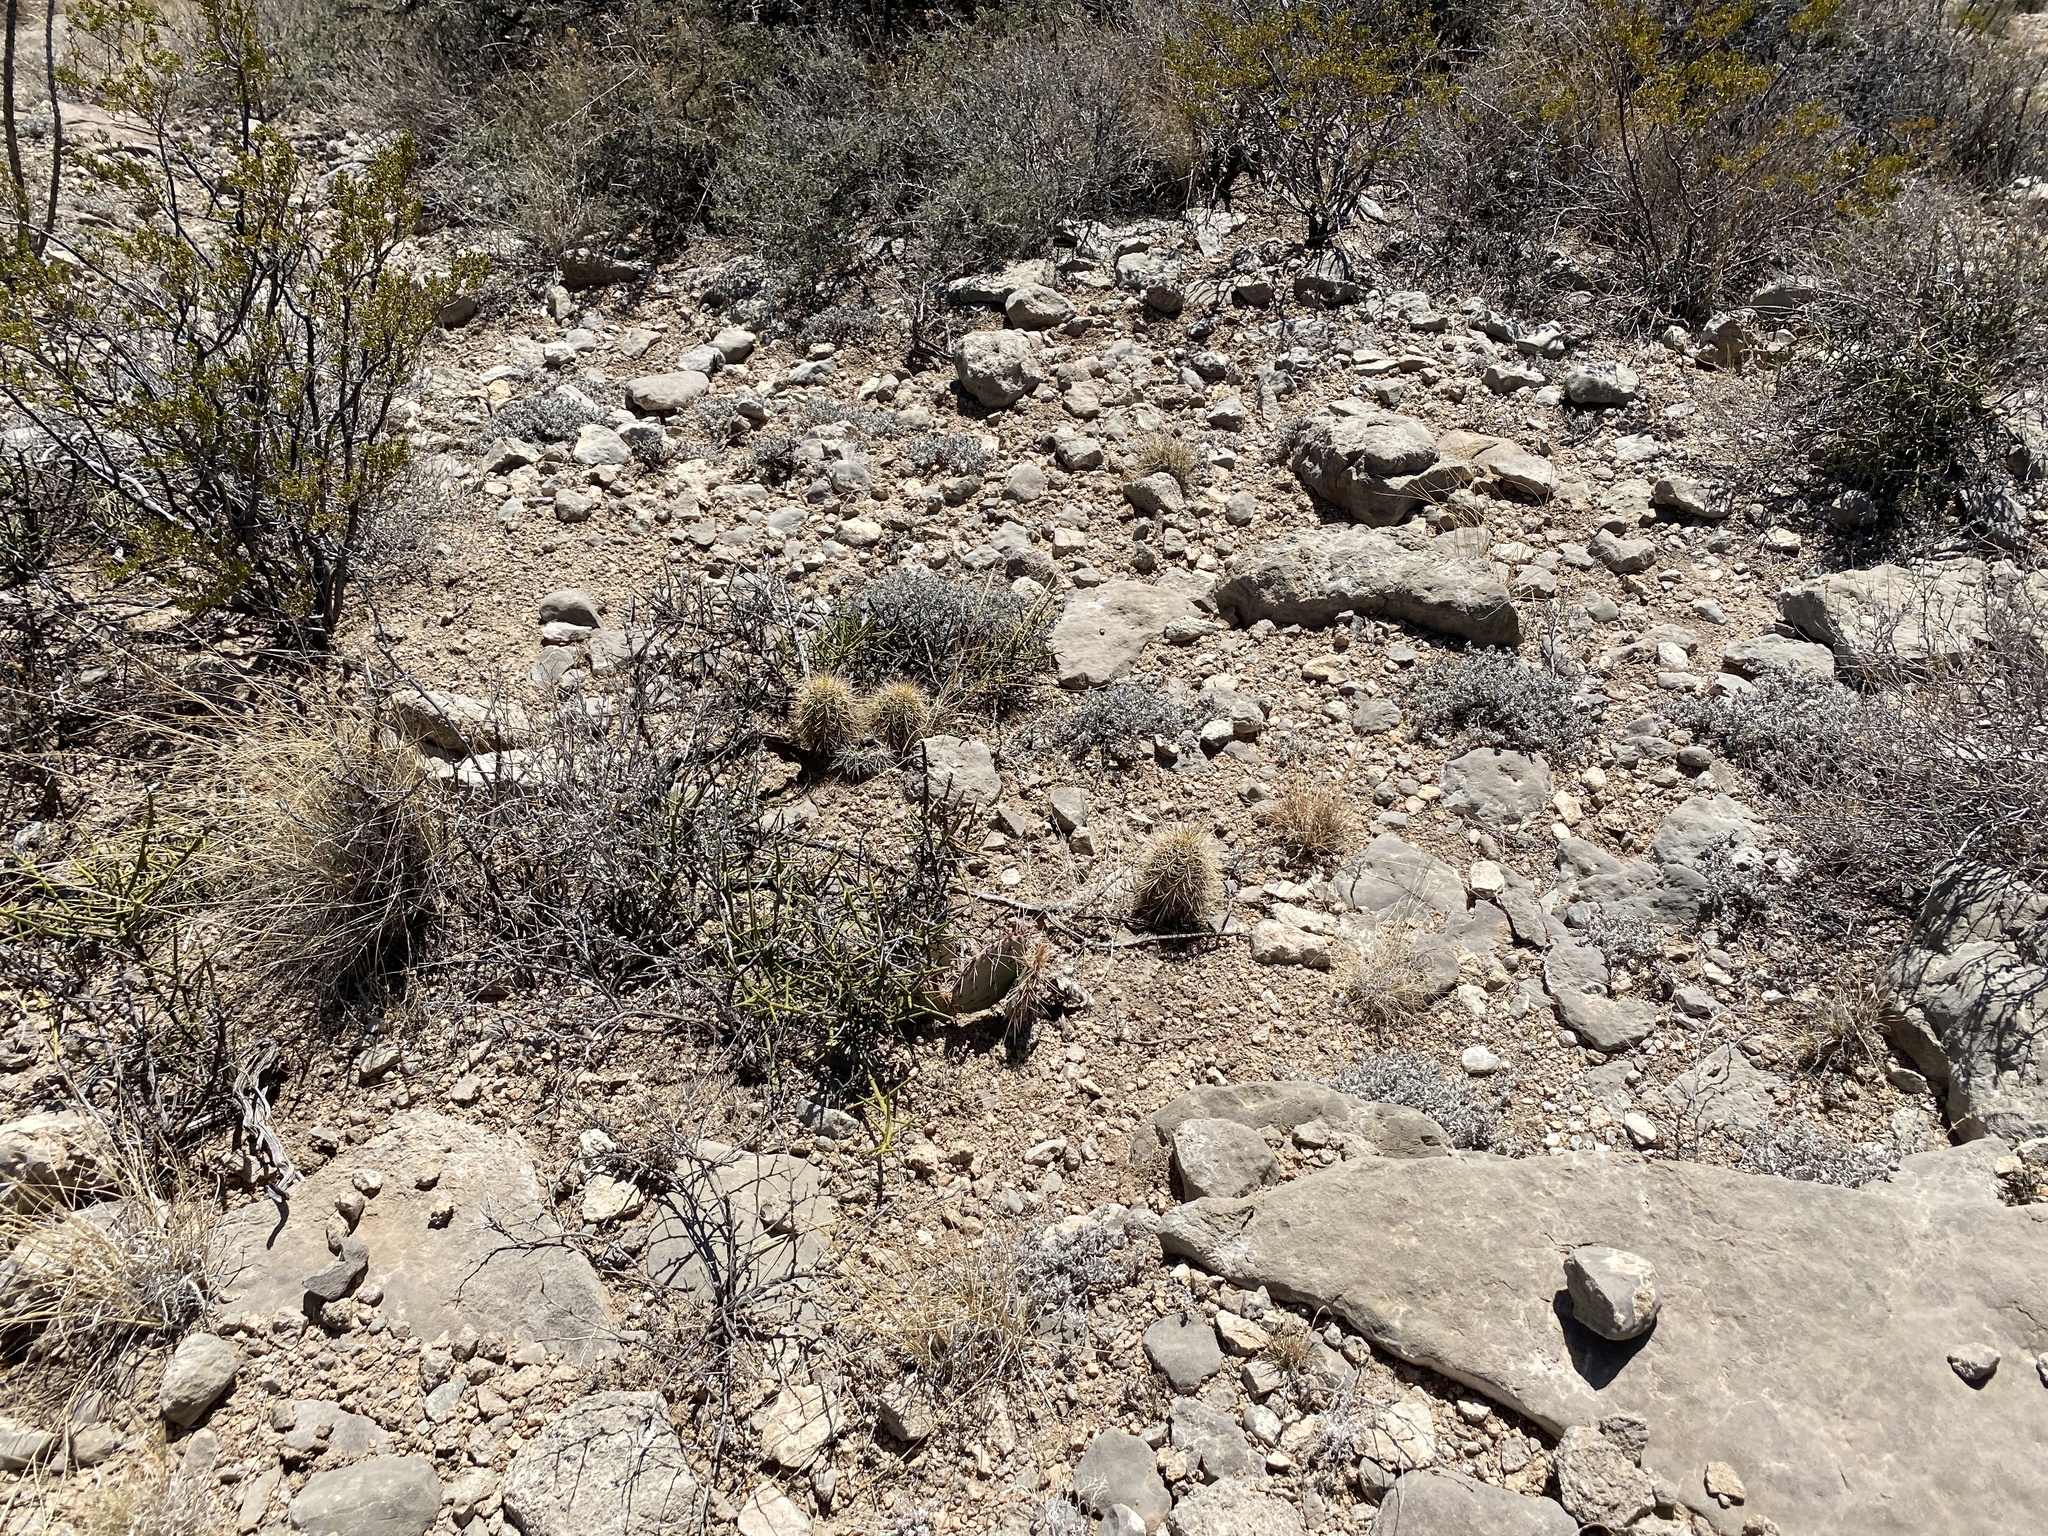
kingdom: Plantae
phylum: Tracheophyta
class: Magnoliopsida
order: Caryophyllales
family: Cactaceae
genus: Echinocereus
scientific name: Echinocereus coccineus
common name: Scarlet hedgehog cactus
